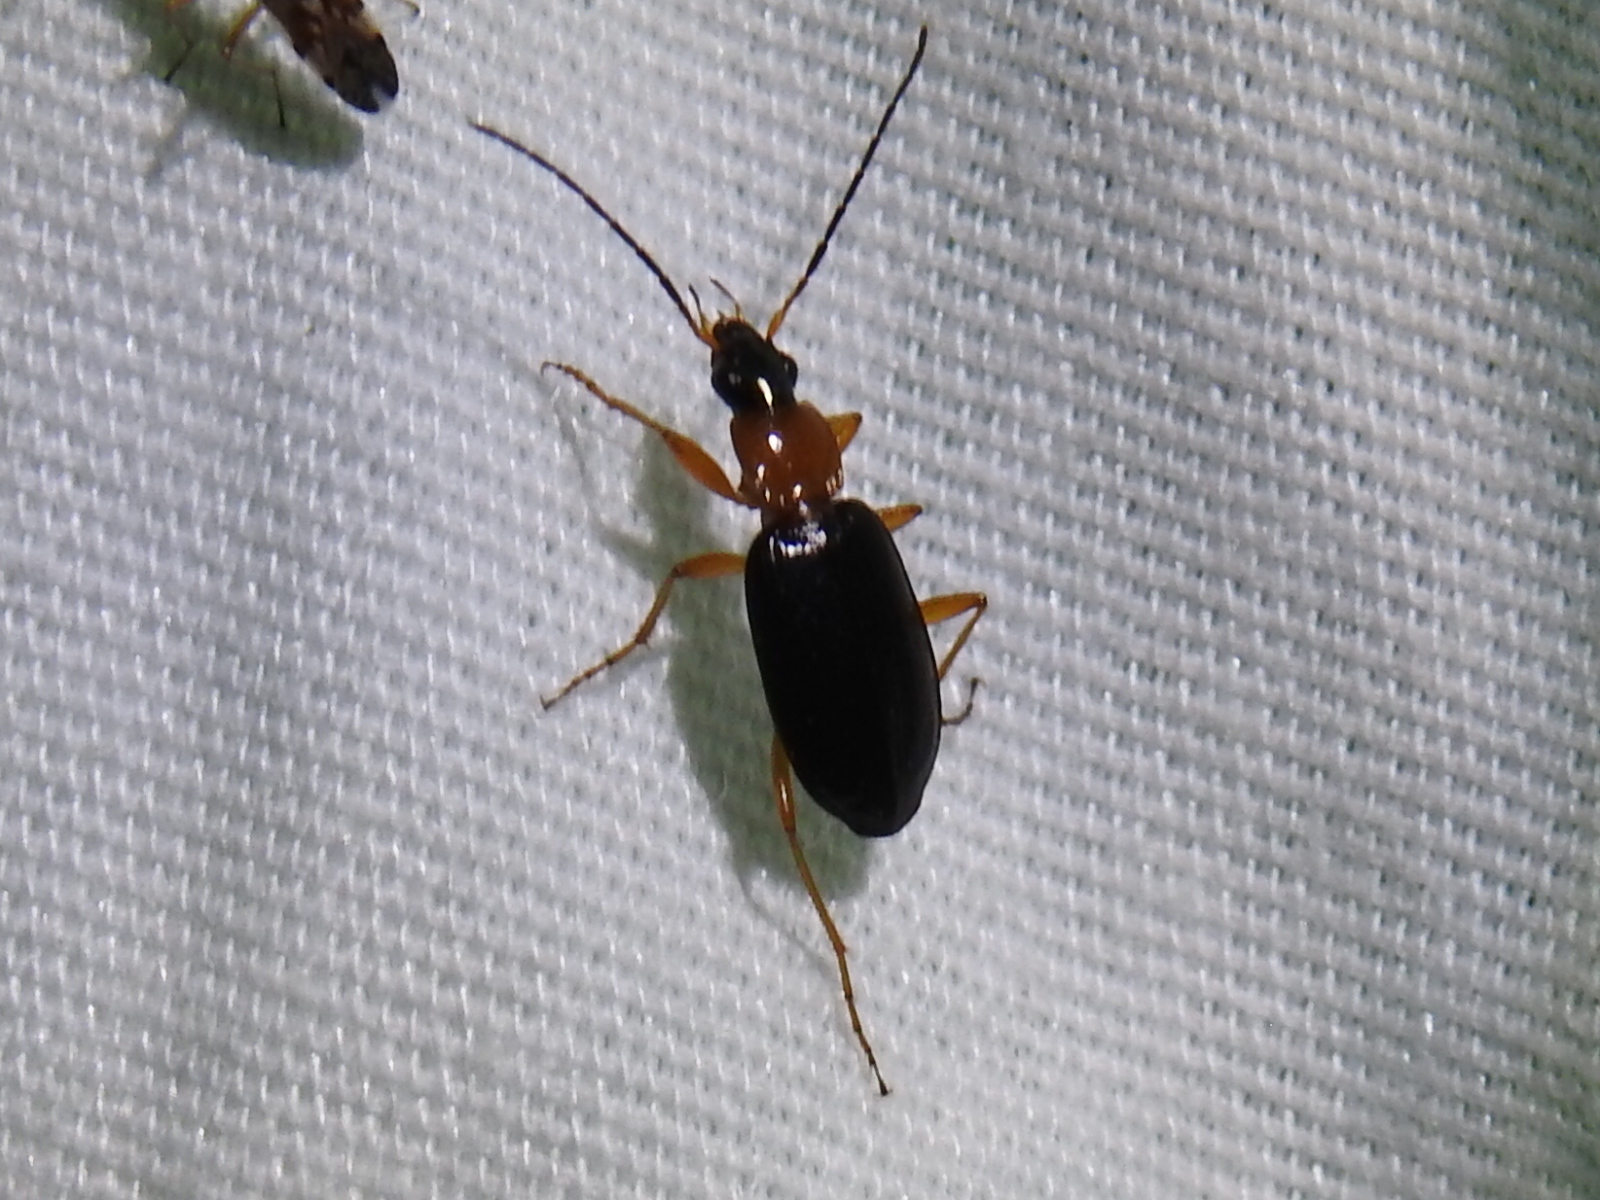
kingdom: Animalia
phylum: Arthropoda
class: Insecta
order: Coleoptera
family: Carabidae
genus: Agonum
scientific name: Agonum decorum
